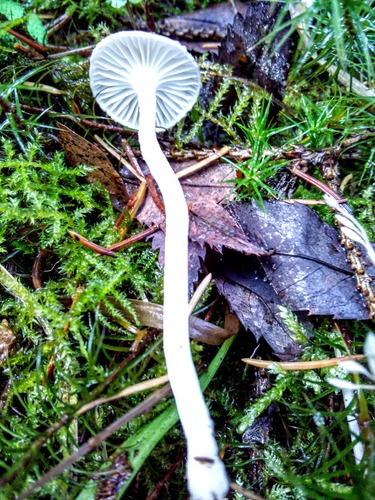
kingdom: Fungi
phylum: Basidiomycota
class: Agaricomycetes
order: Agaricales
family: Hygrophoraceae
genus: Hygrophorus
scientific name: Hygrophorus
